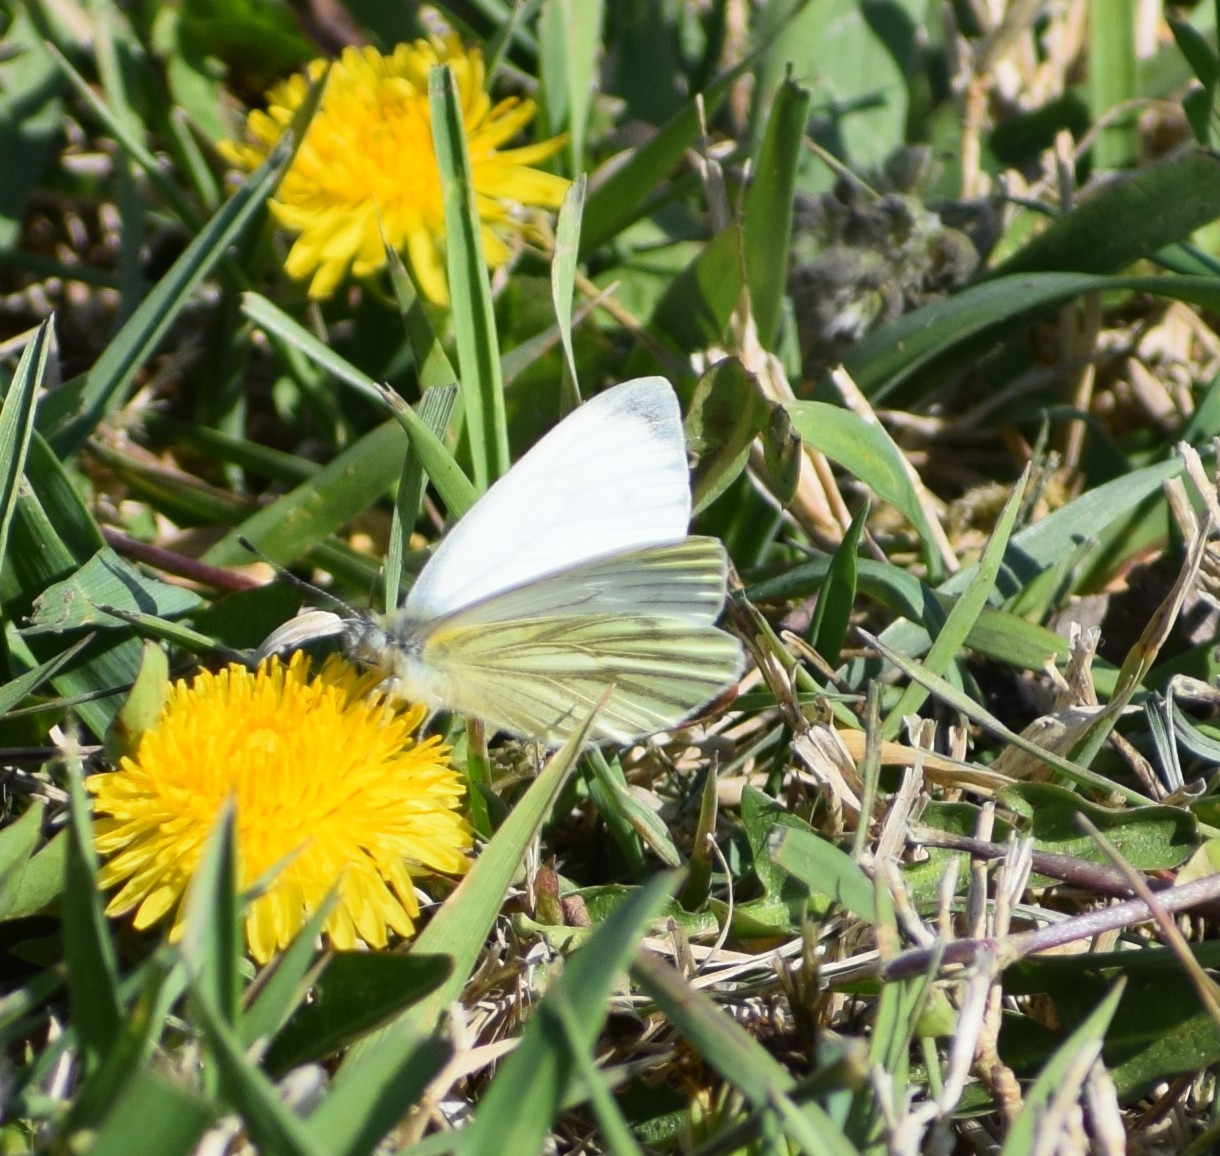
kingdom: Animalia
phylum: Arthropoda
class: Insecta
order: Lepidoptera
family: Pieridae
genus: Pieris
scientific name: Pieris napi
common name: Green-veined white
